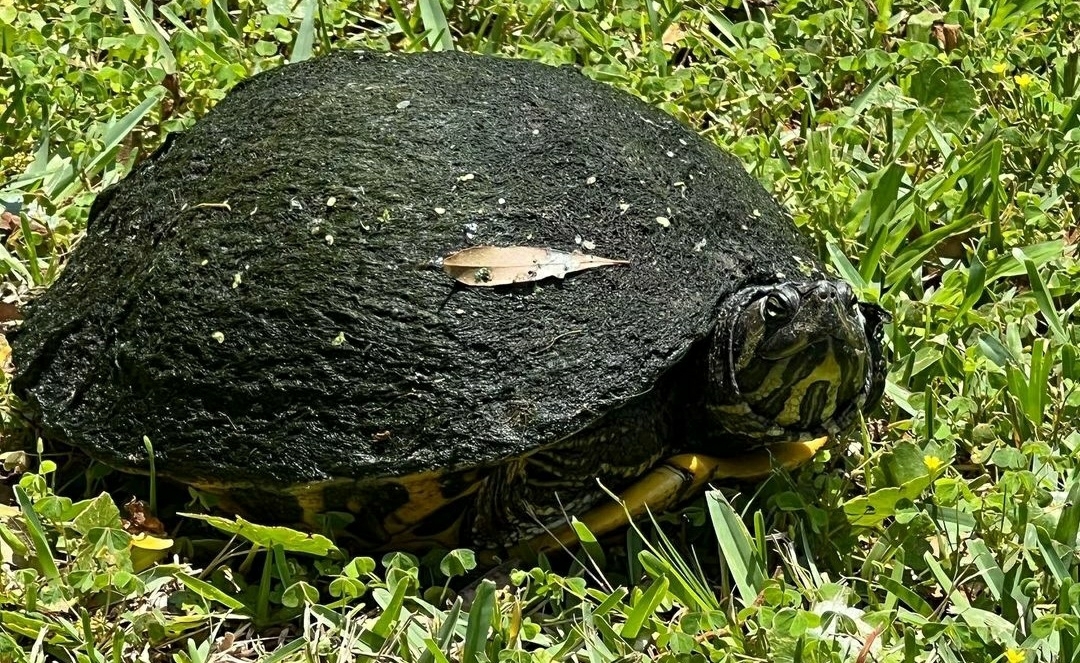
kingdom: Animalia
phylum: Chordata
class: Testudines
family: Emydidae
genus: Trachemys
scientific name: Trachemys scripta
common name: Slider
